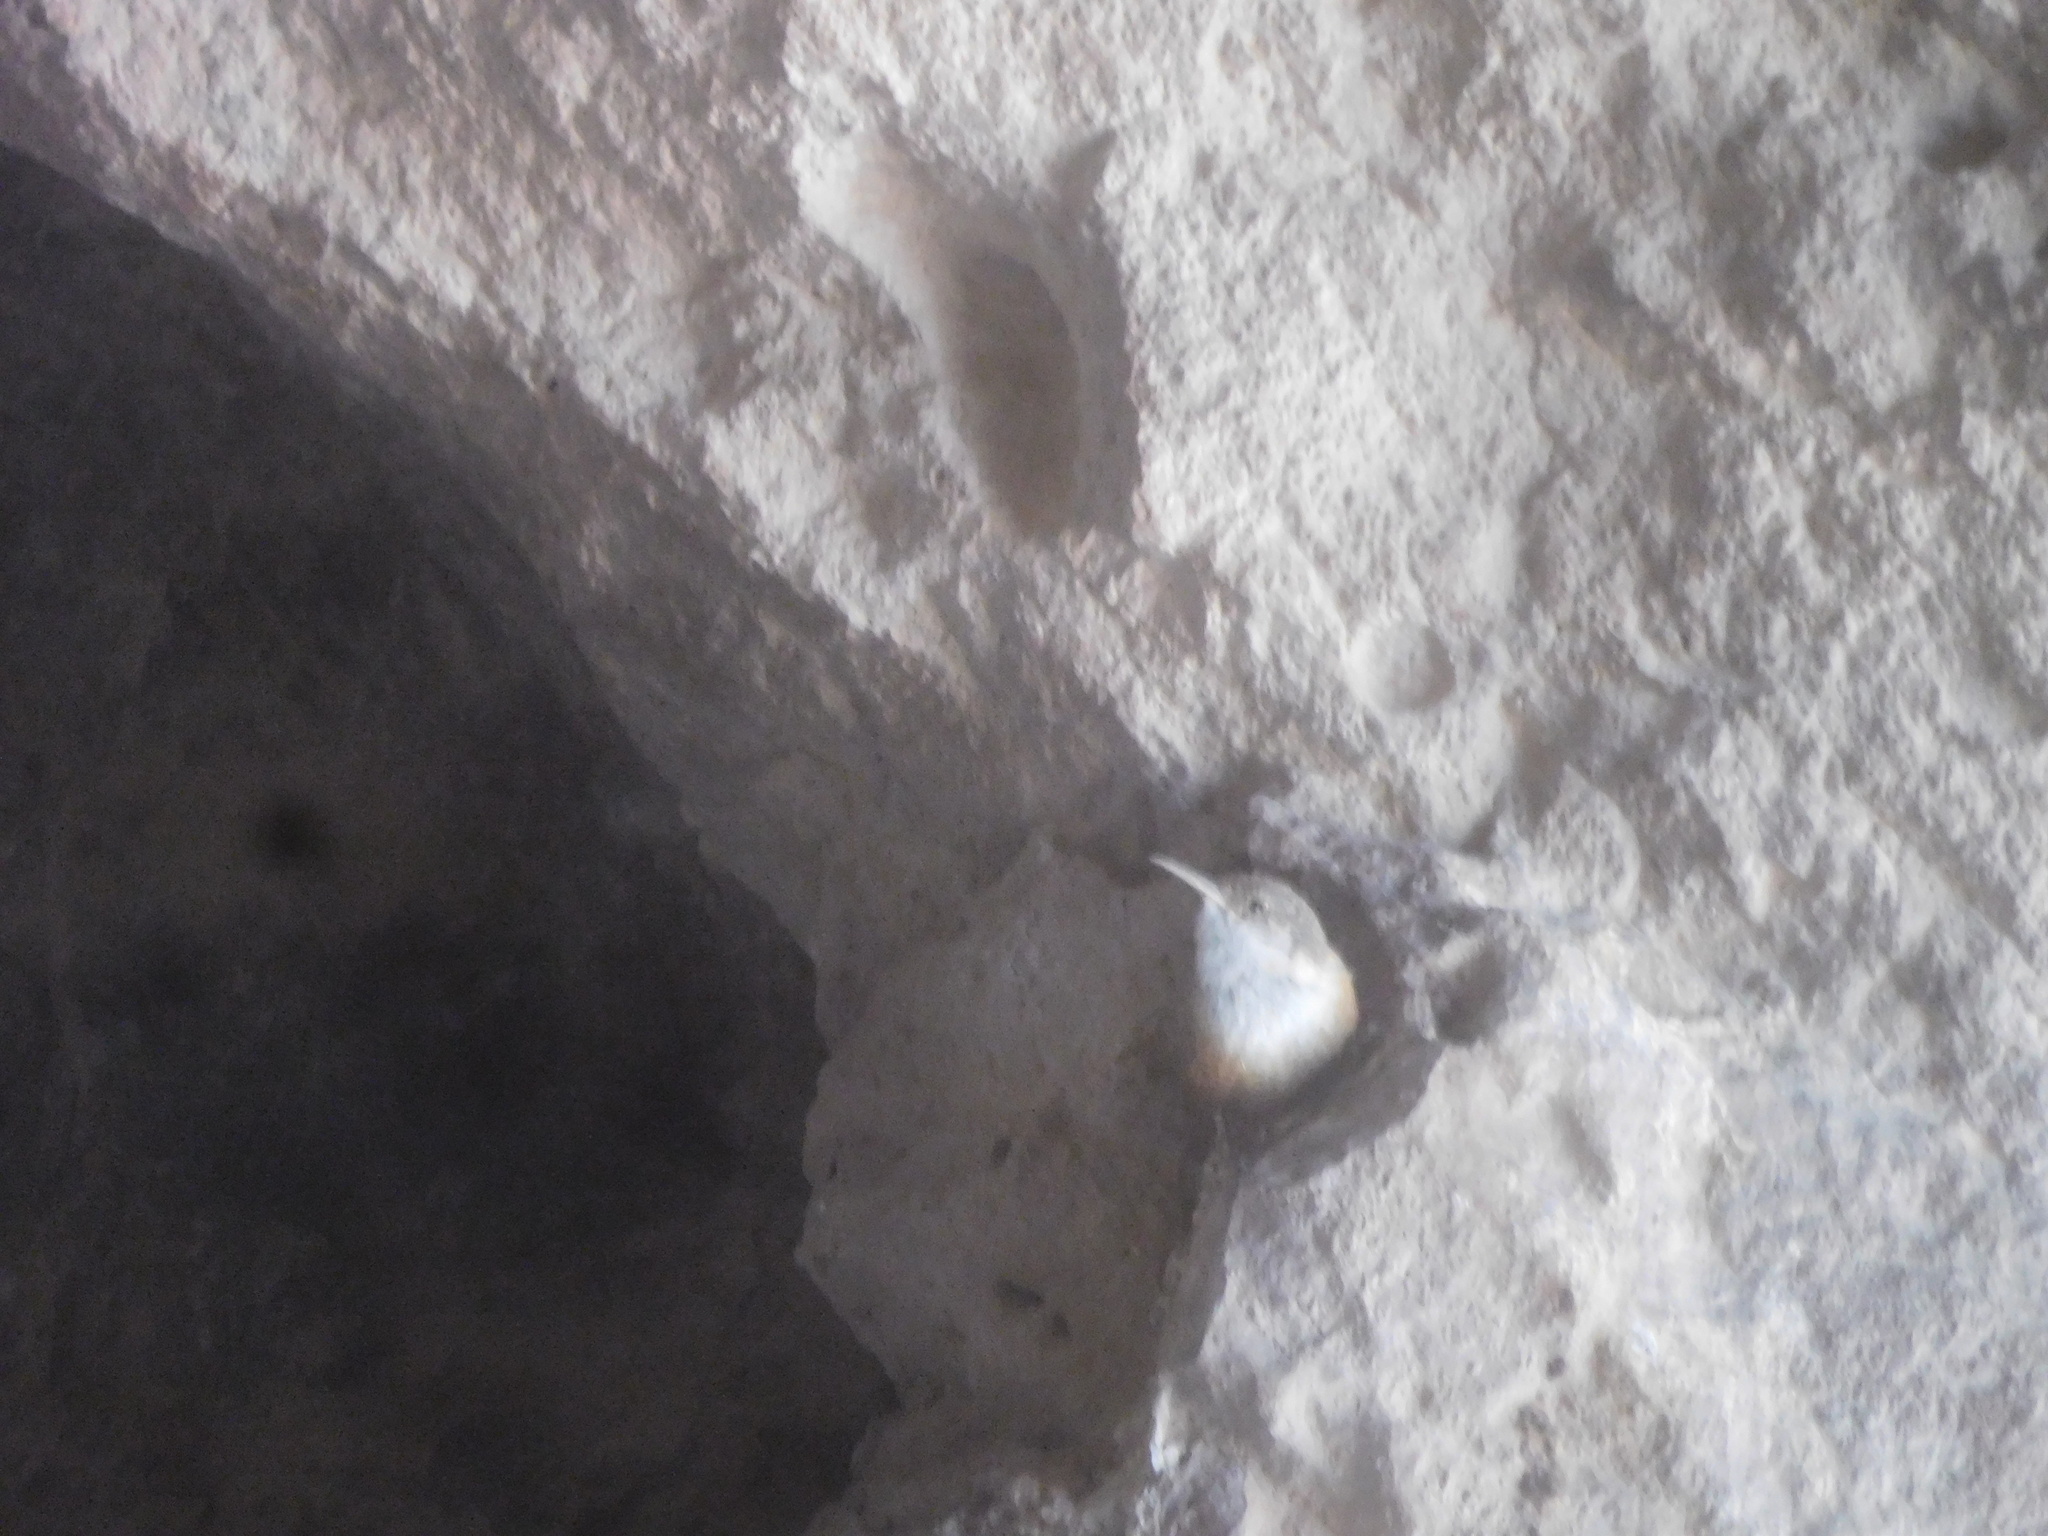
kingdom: Animalia
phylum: Chordata
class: Aves
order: Passeriformes
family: Troglodytidae
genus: Catherpes
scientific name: Catherpes mexicanus
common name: Canyon wren
